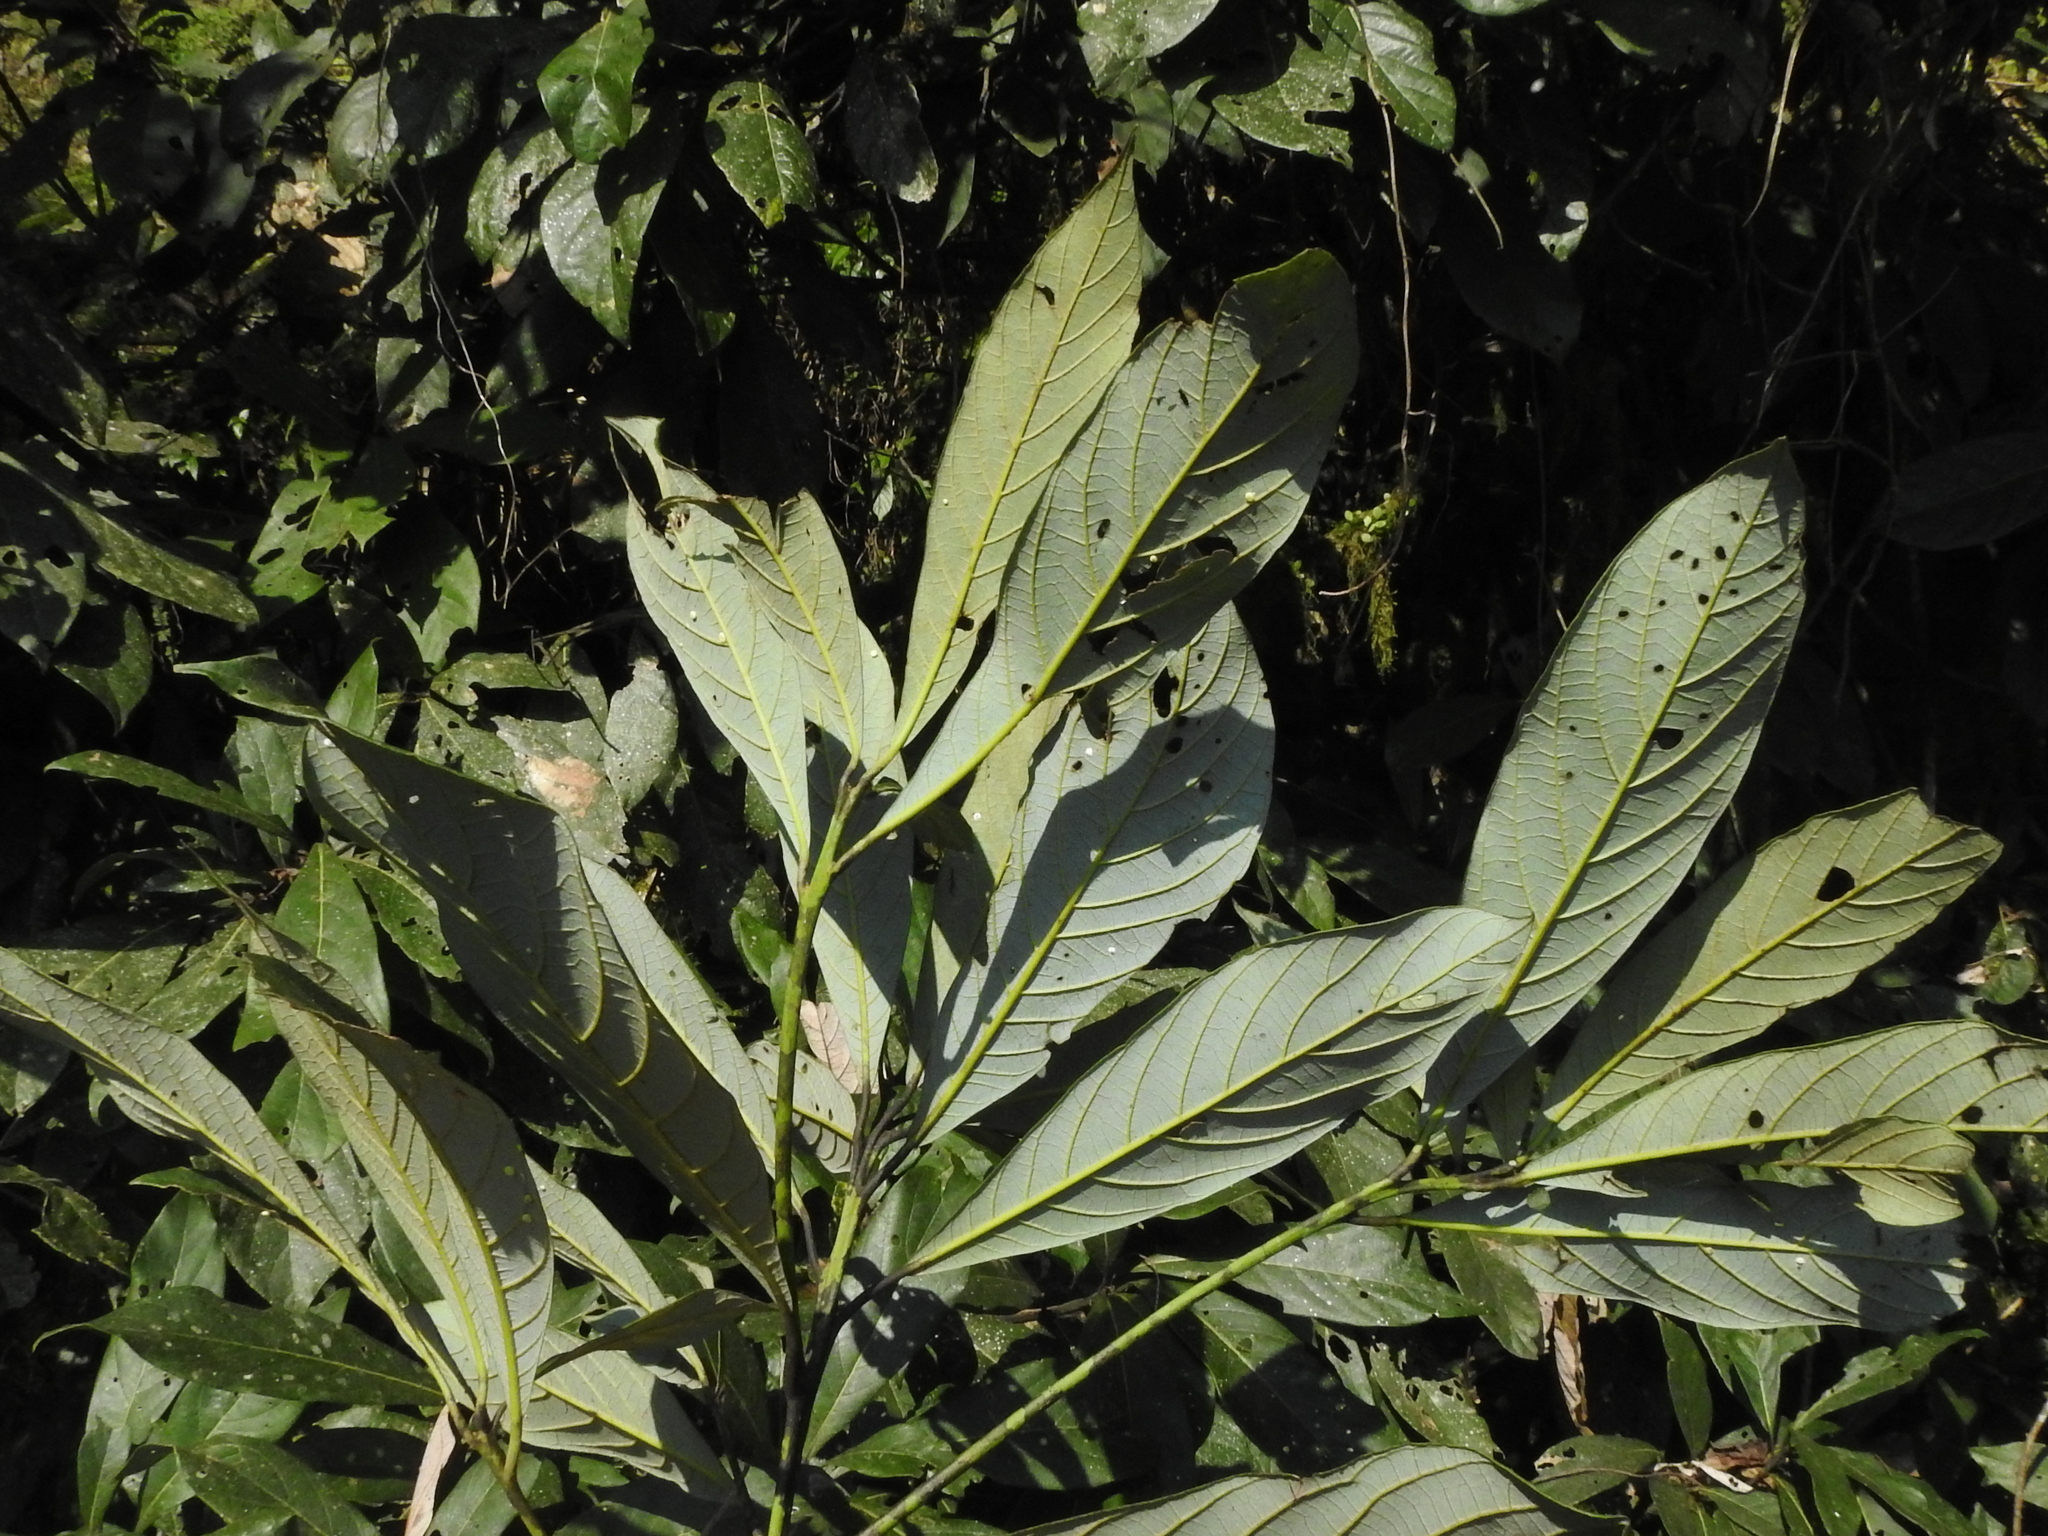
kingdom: Plantae
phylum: Tracheophyta
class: Magnoliopsida
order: Laurales
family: Lauraceae
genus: Phoebe
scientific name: Phoebe formosana
